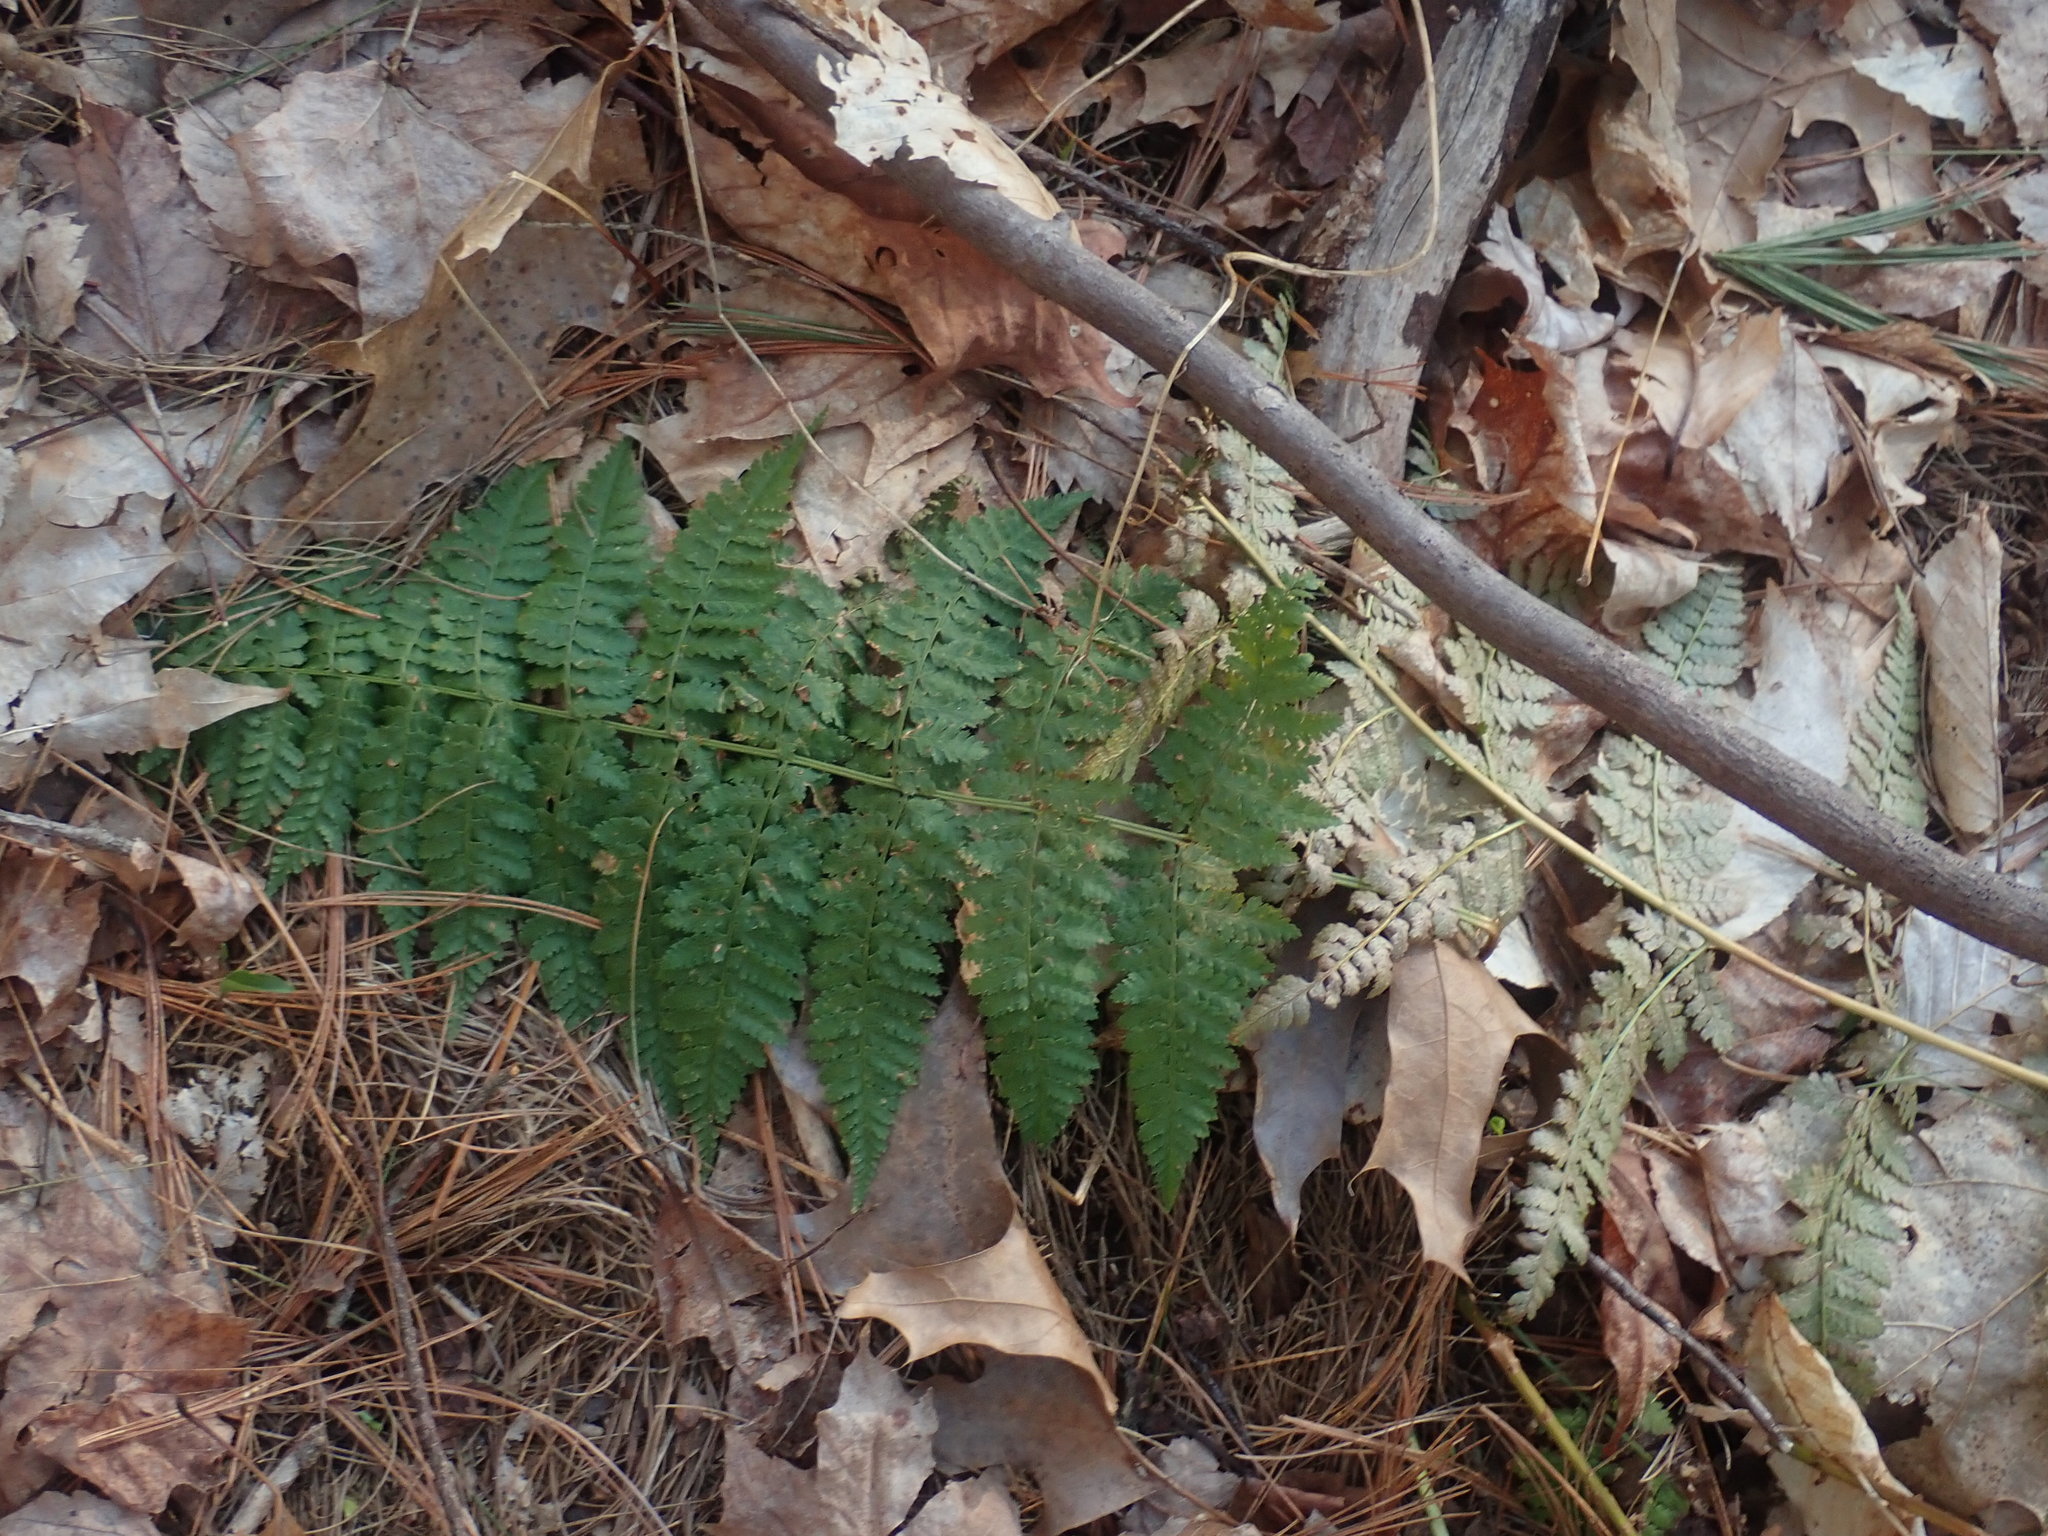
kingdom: Plantae
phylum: Tracheophyta
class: Polypodiopsida
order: Polypodiales
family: Dryopteridaceae
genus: Dryopteris
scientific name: Dryopteris intermedia
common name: Evergreen wood fern
